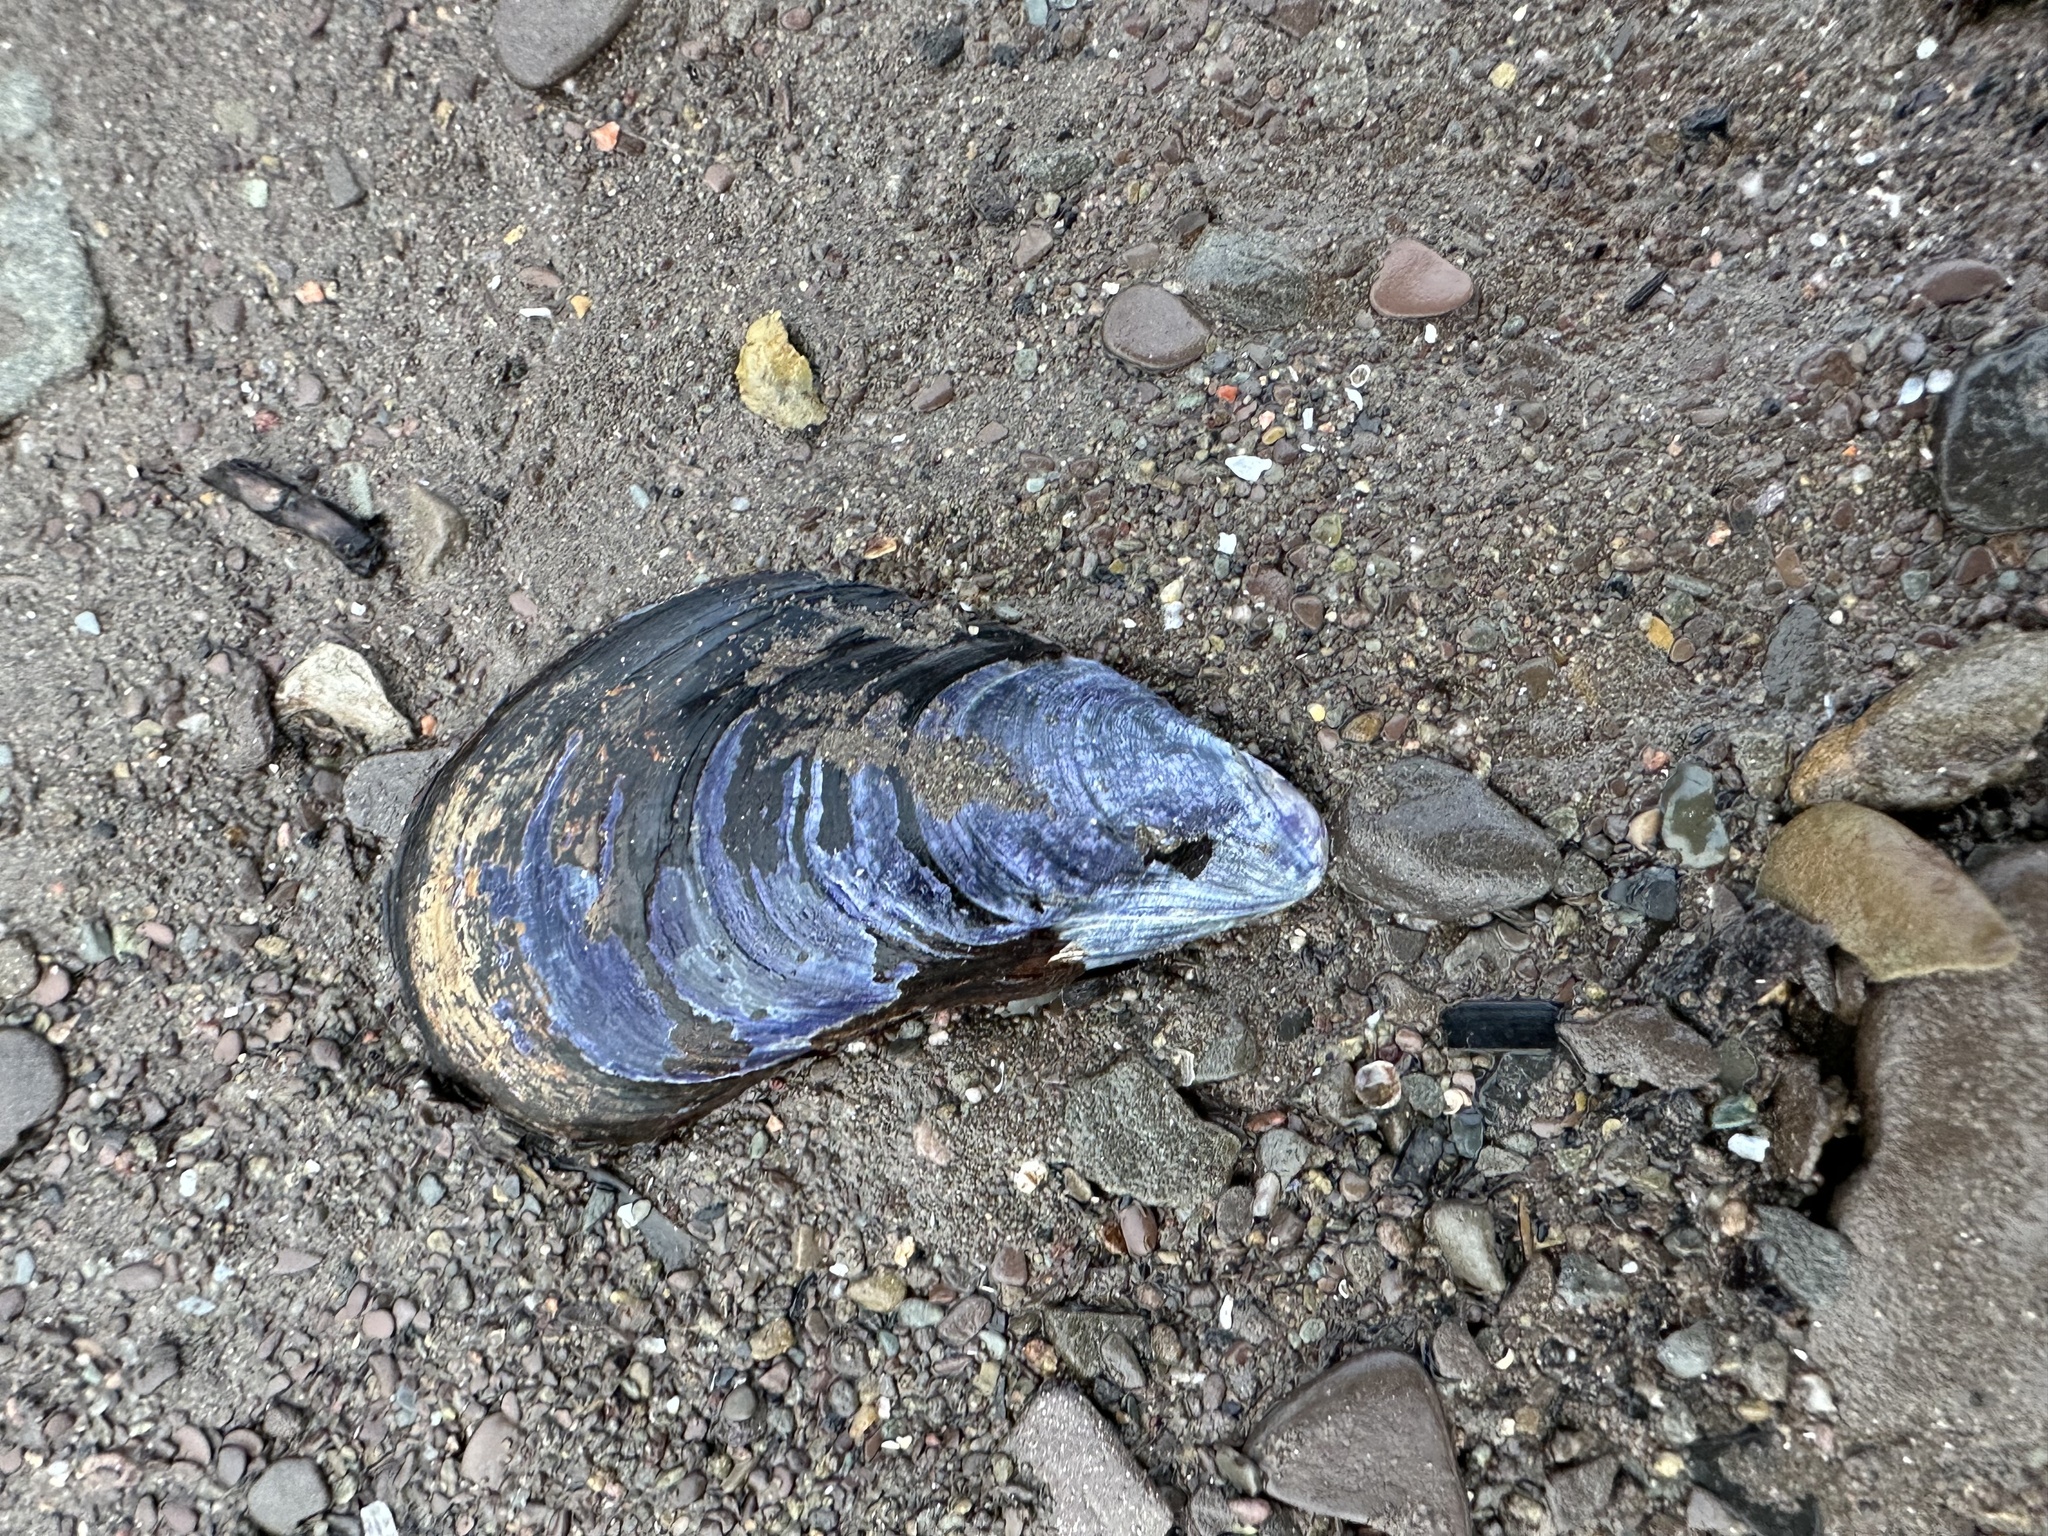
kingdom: Animalia
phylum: Mollusca
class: Bivalvia
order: Mytilida
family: Mytilidae
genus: Mytilus
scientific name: Mytilus
